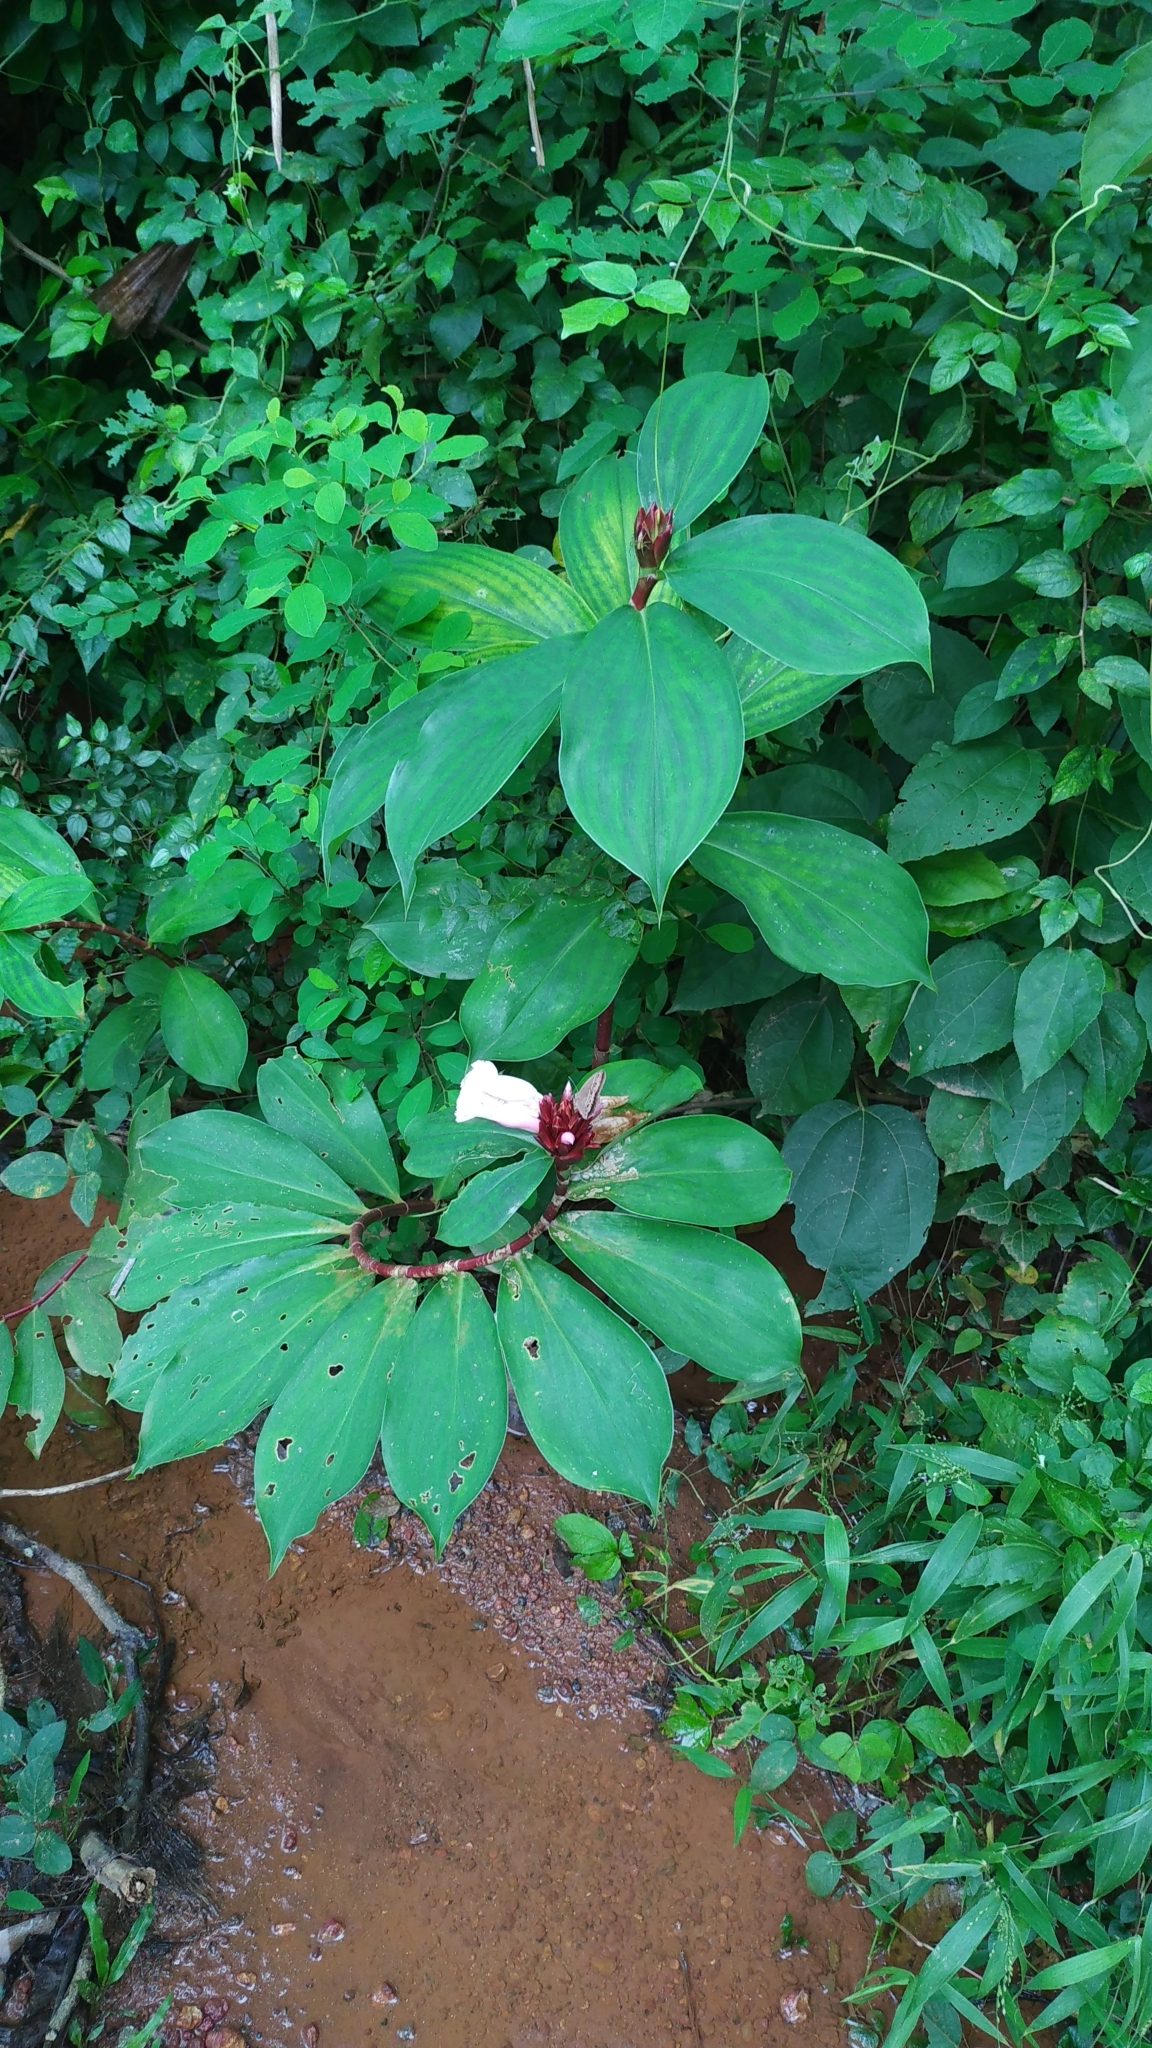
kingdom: Plantae
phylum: Tracheophyta
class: Liliopsida
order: Zingiberales
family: Costaceae
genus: Hellenia
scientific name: Hellenia speciosa
